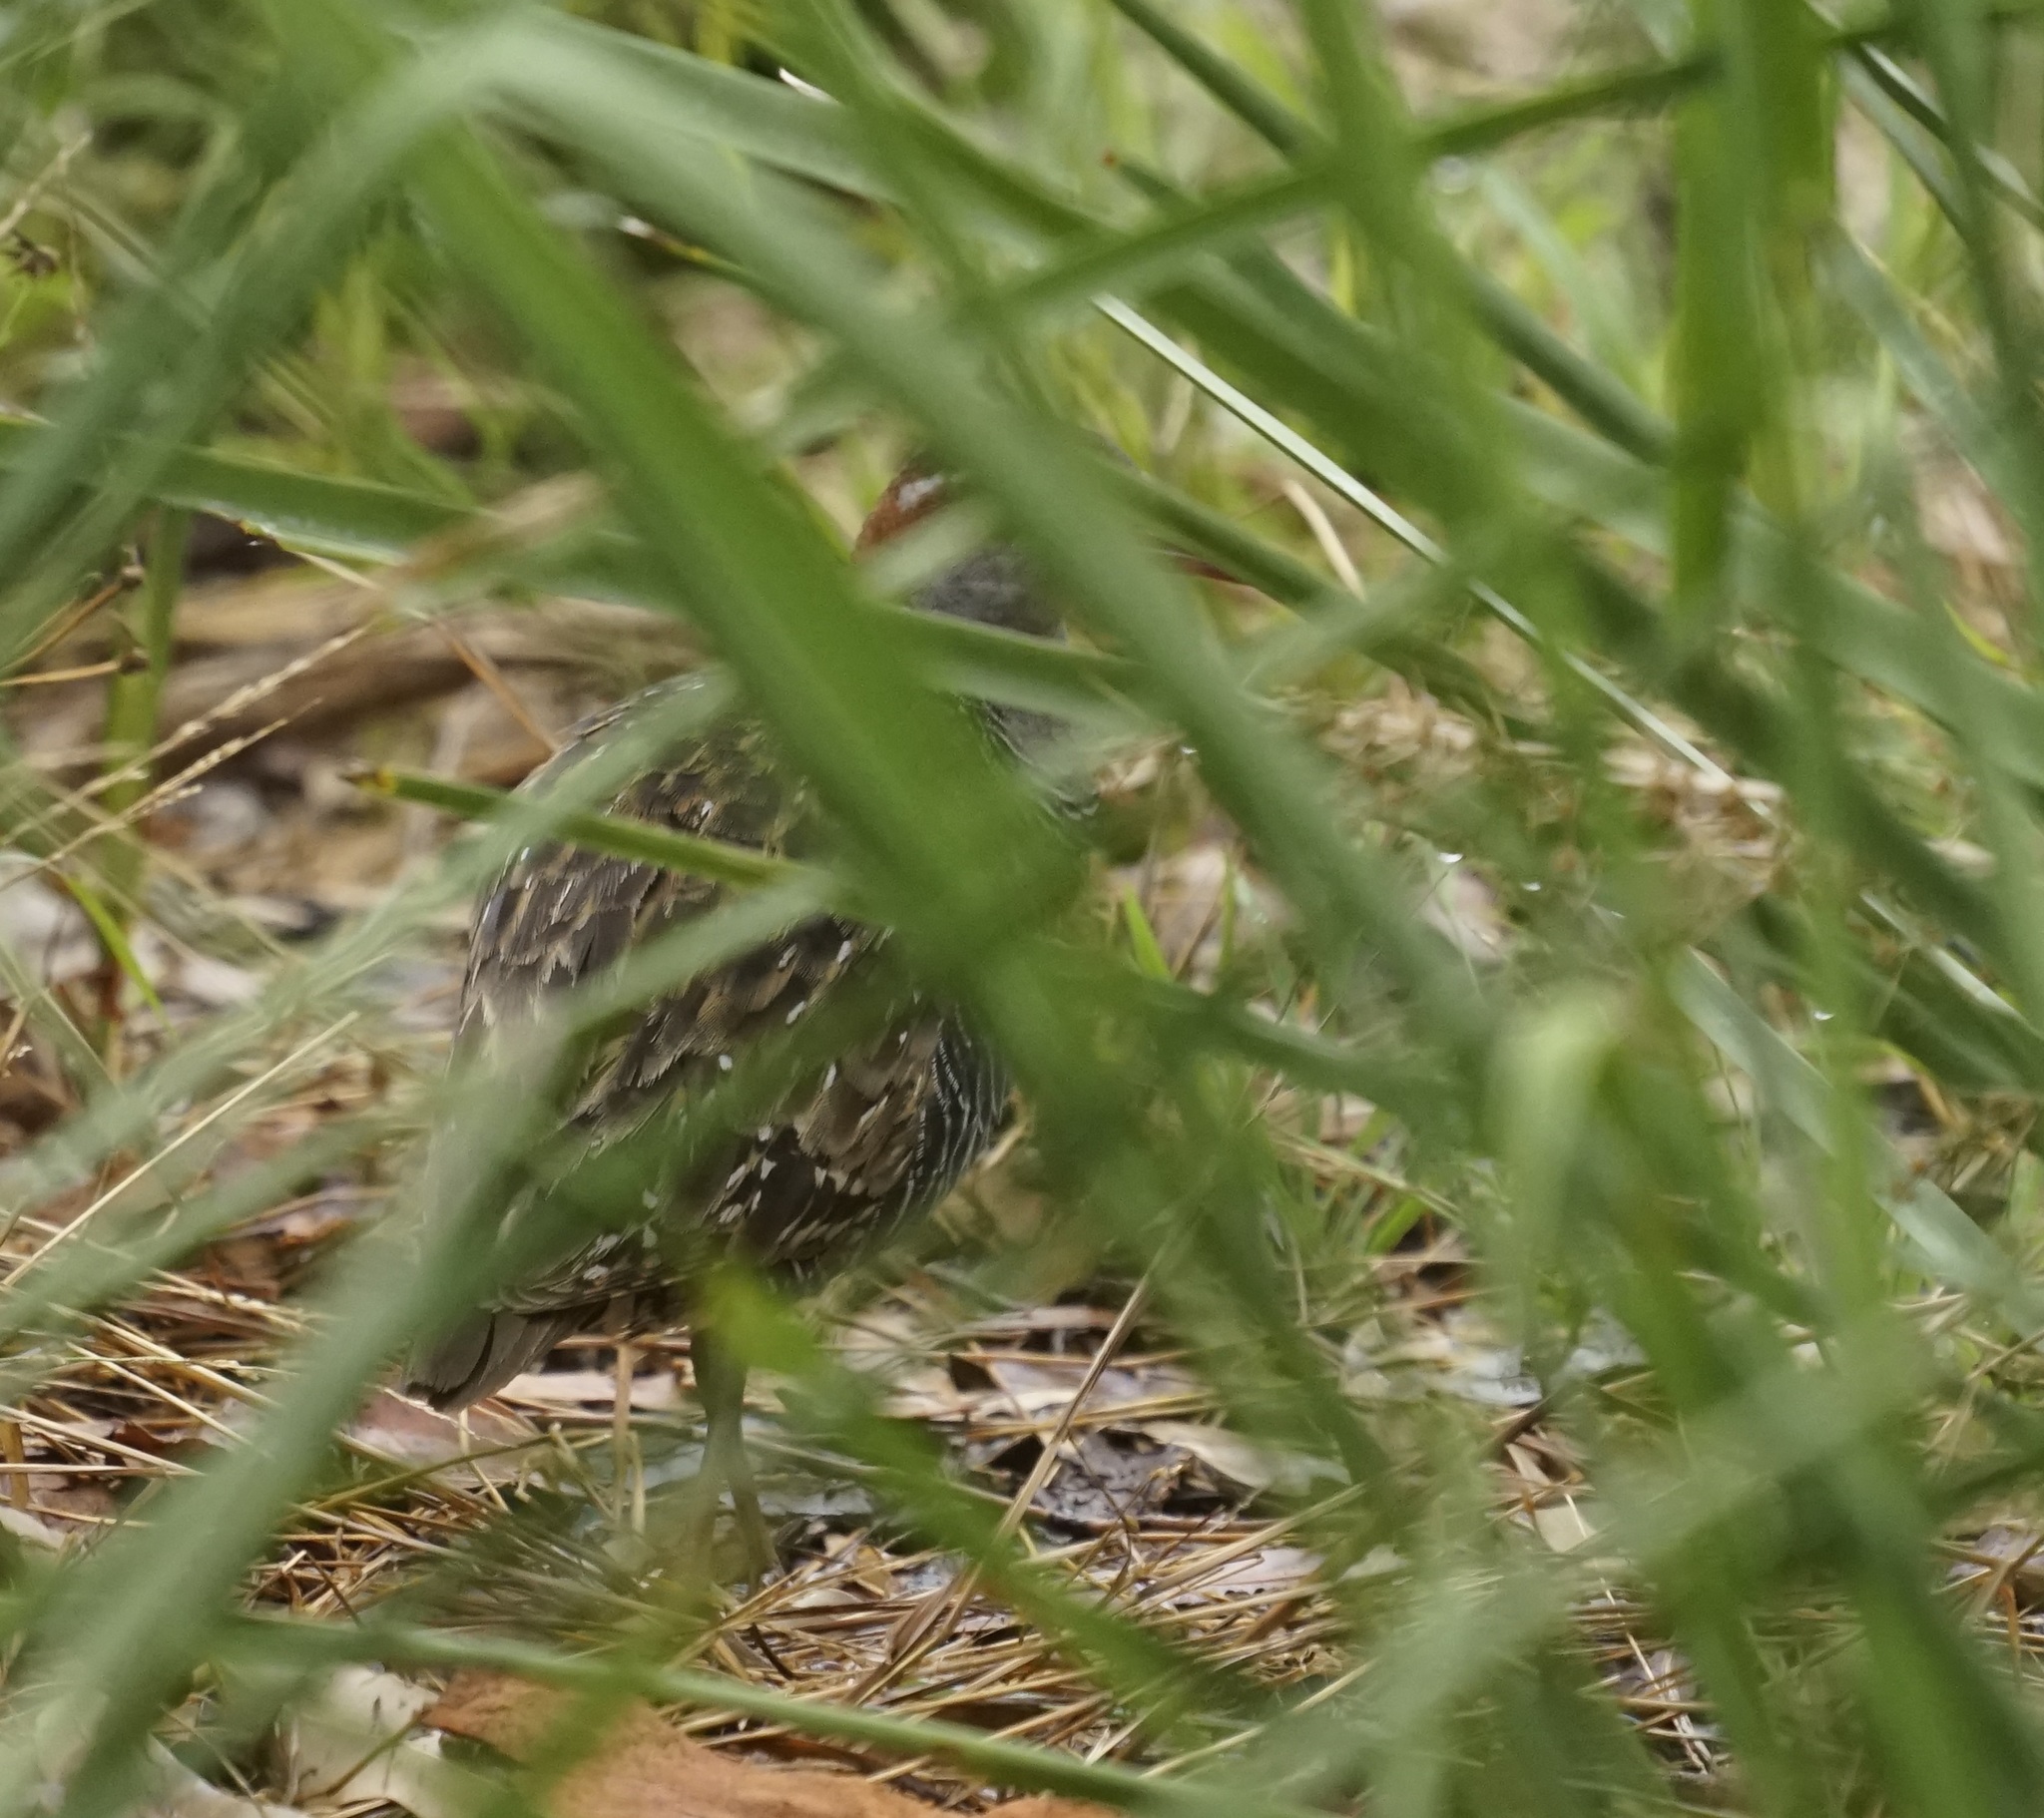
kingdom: Animalia
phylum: Chordata
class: Aves
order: Gruiformes
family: Rallidae
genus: Gallirallus
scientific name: Gallirallus philippensis
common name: Buff-banded rail
